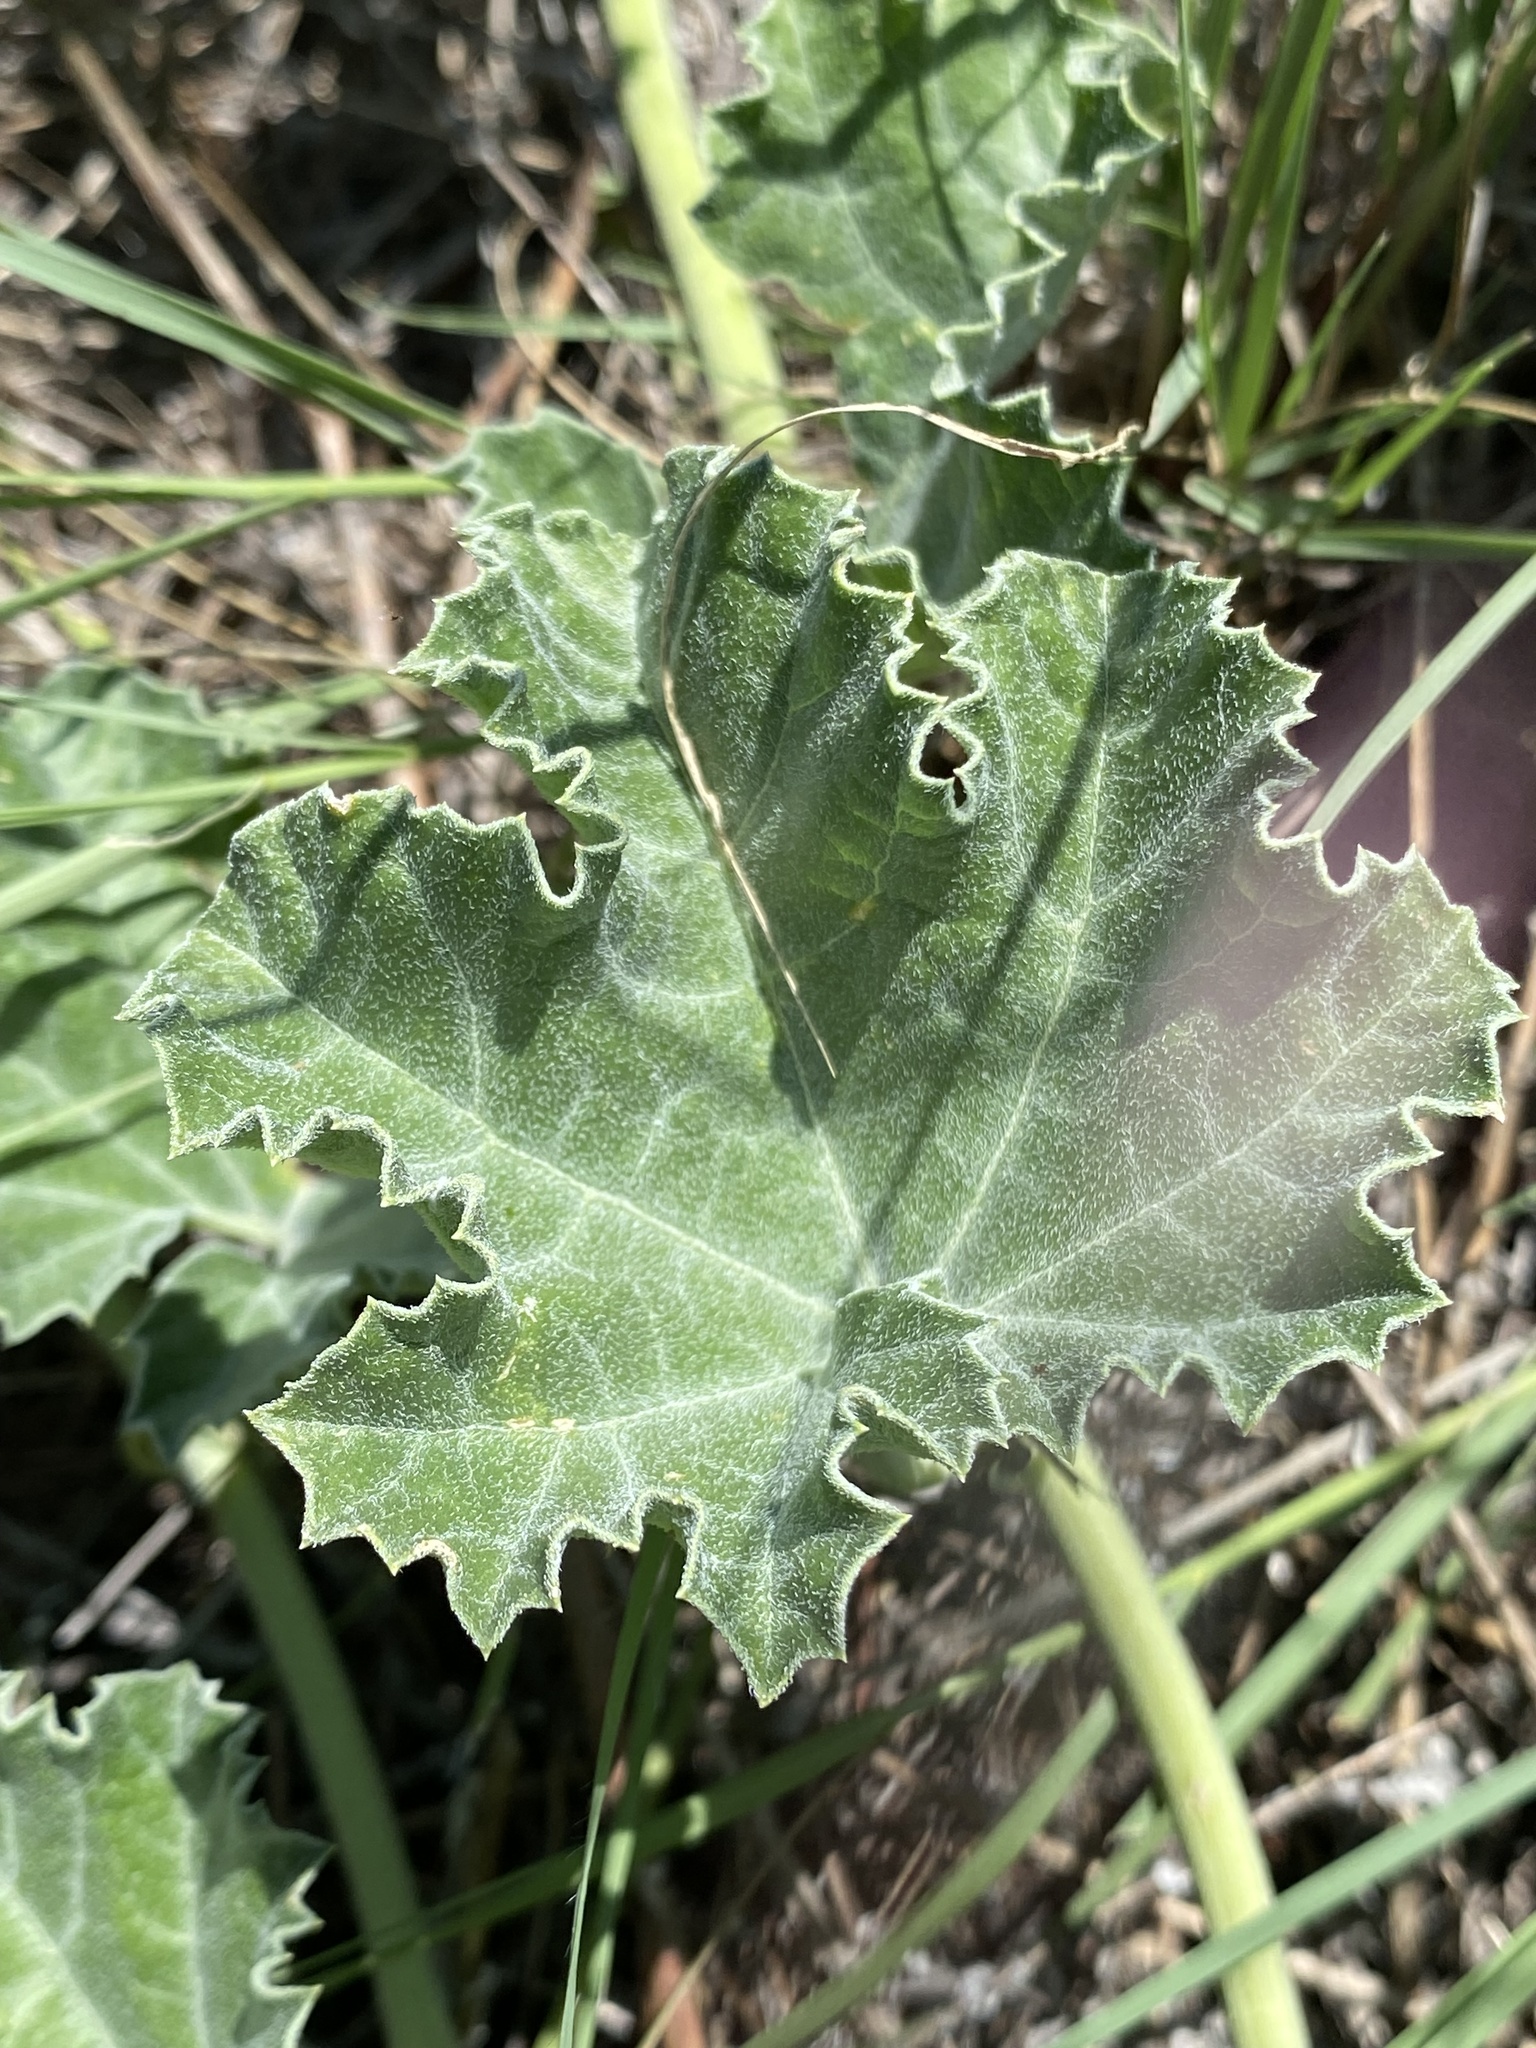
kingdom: Plantae
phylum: Tracheophyta
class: Magnoliopsida
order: Cucurbitales
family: Cucurbitaceae
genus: Apodanthera
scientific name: Apodanthera undulata
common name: Melon-loco
